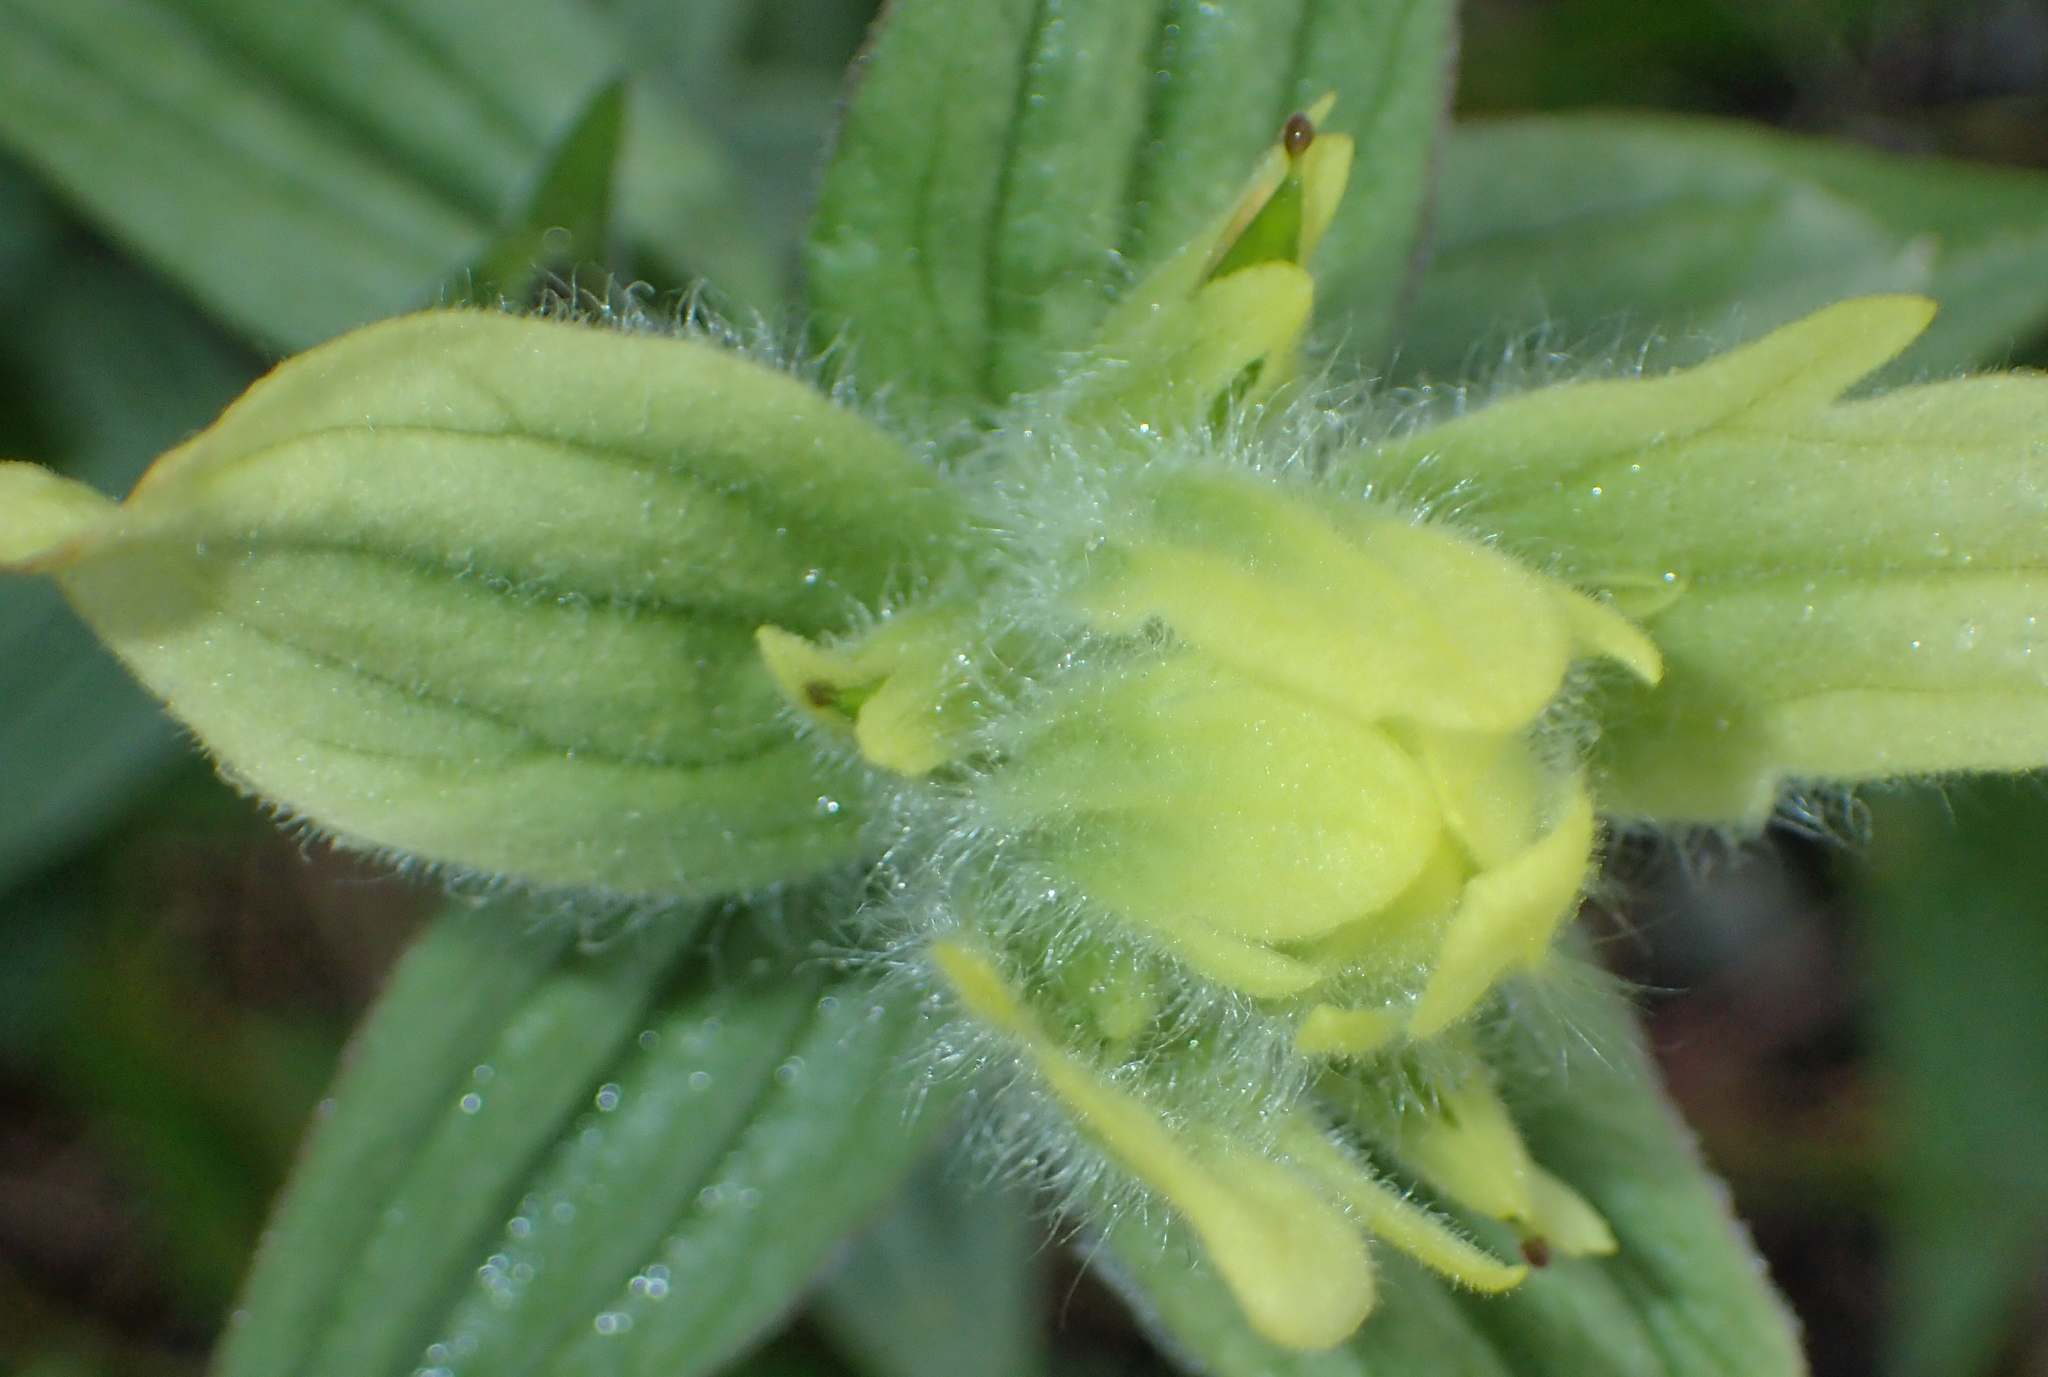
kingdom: Plantae
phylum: Tracheophyta
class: Magnoliopsida
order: Lamiales
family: Orobanchaceae
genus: Castilleja
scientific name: Castilleja unalaschcensis
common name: Unalaska paintbrush
